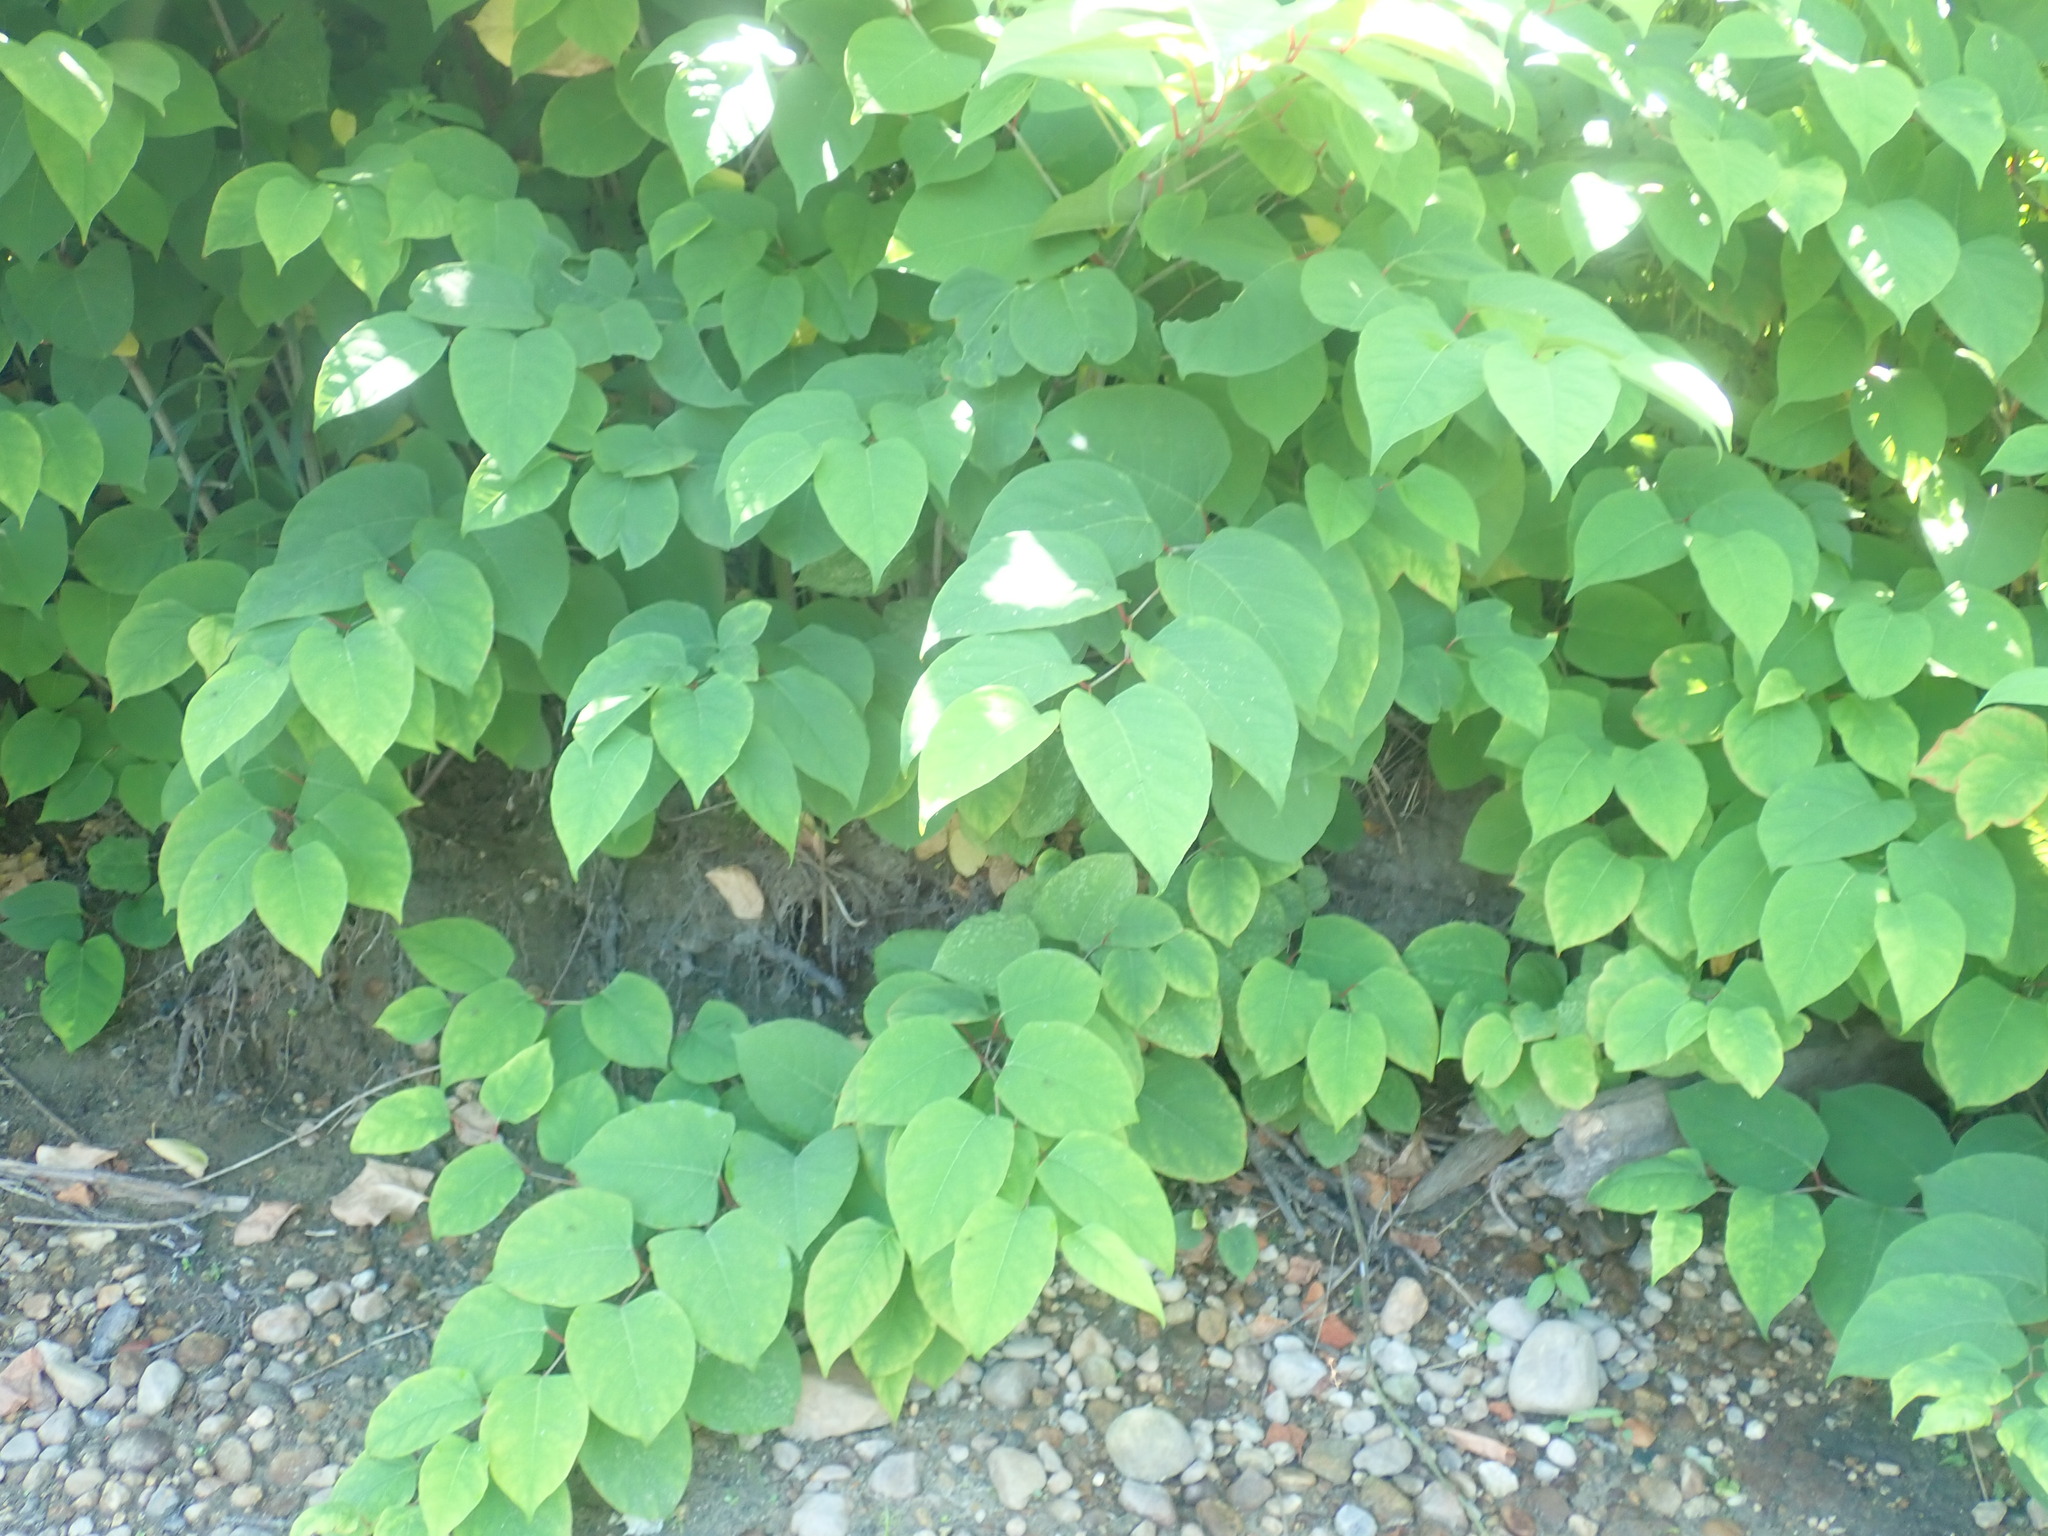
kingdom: Plantae
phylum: Tracheophyta
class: Magnoliopsida
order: Caryophyllales
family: Polygonaceae
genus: Reynoutria
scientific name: Reynoutria japonica
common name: Japanese knotweed
